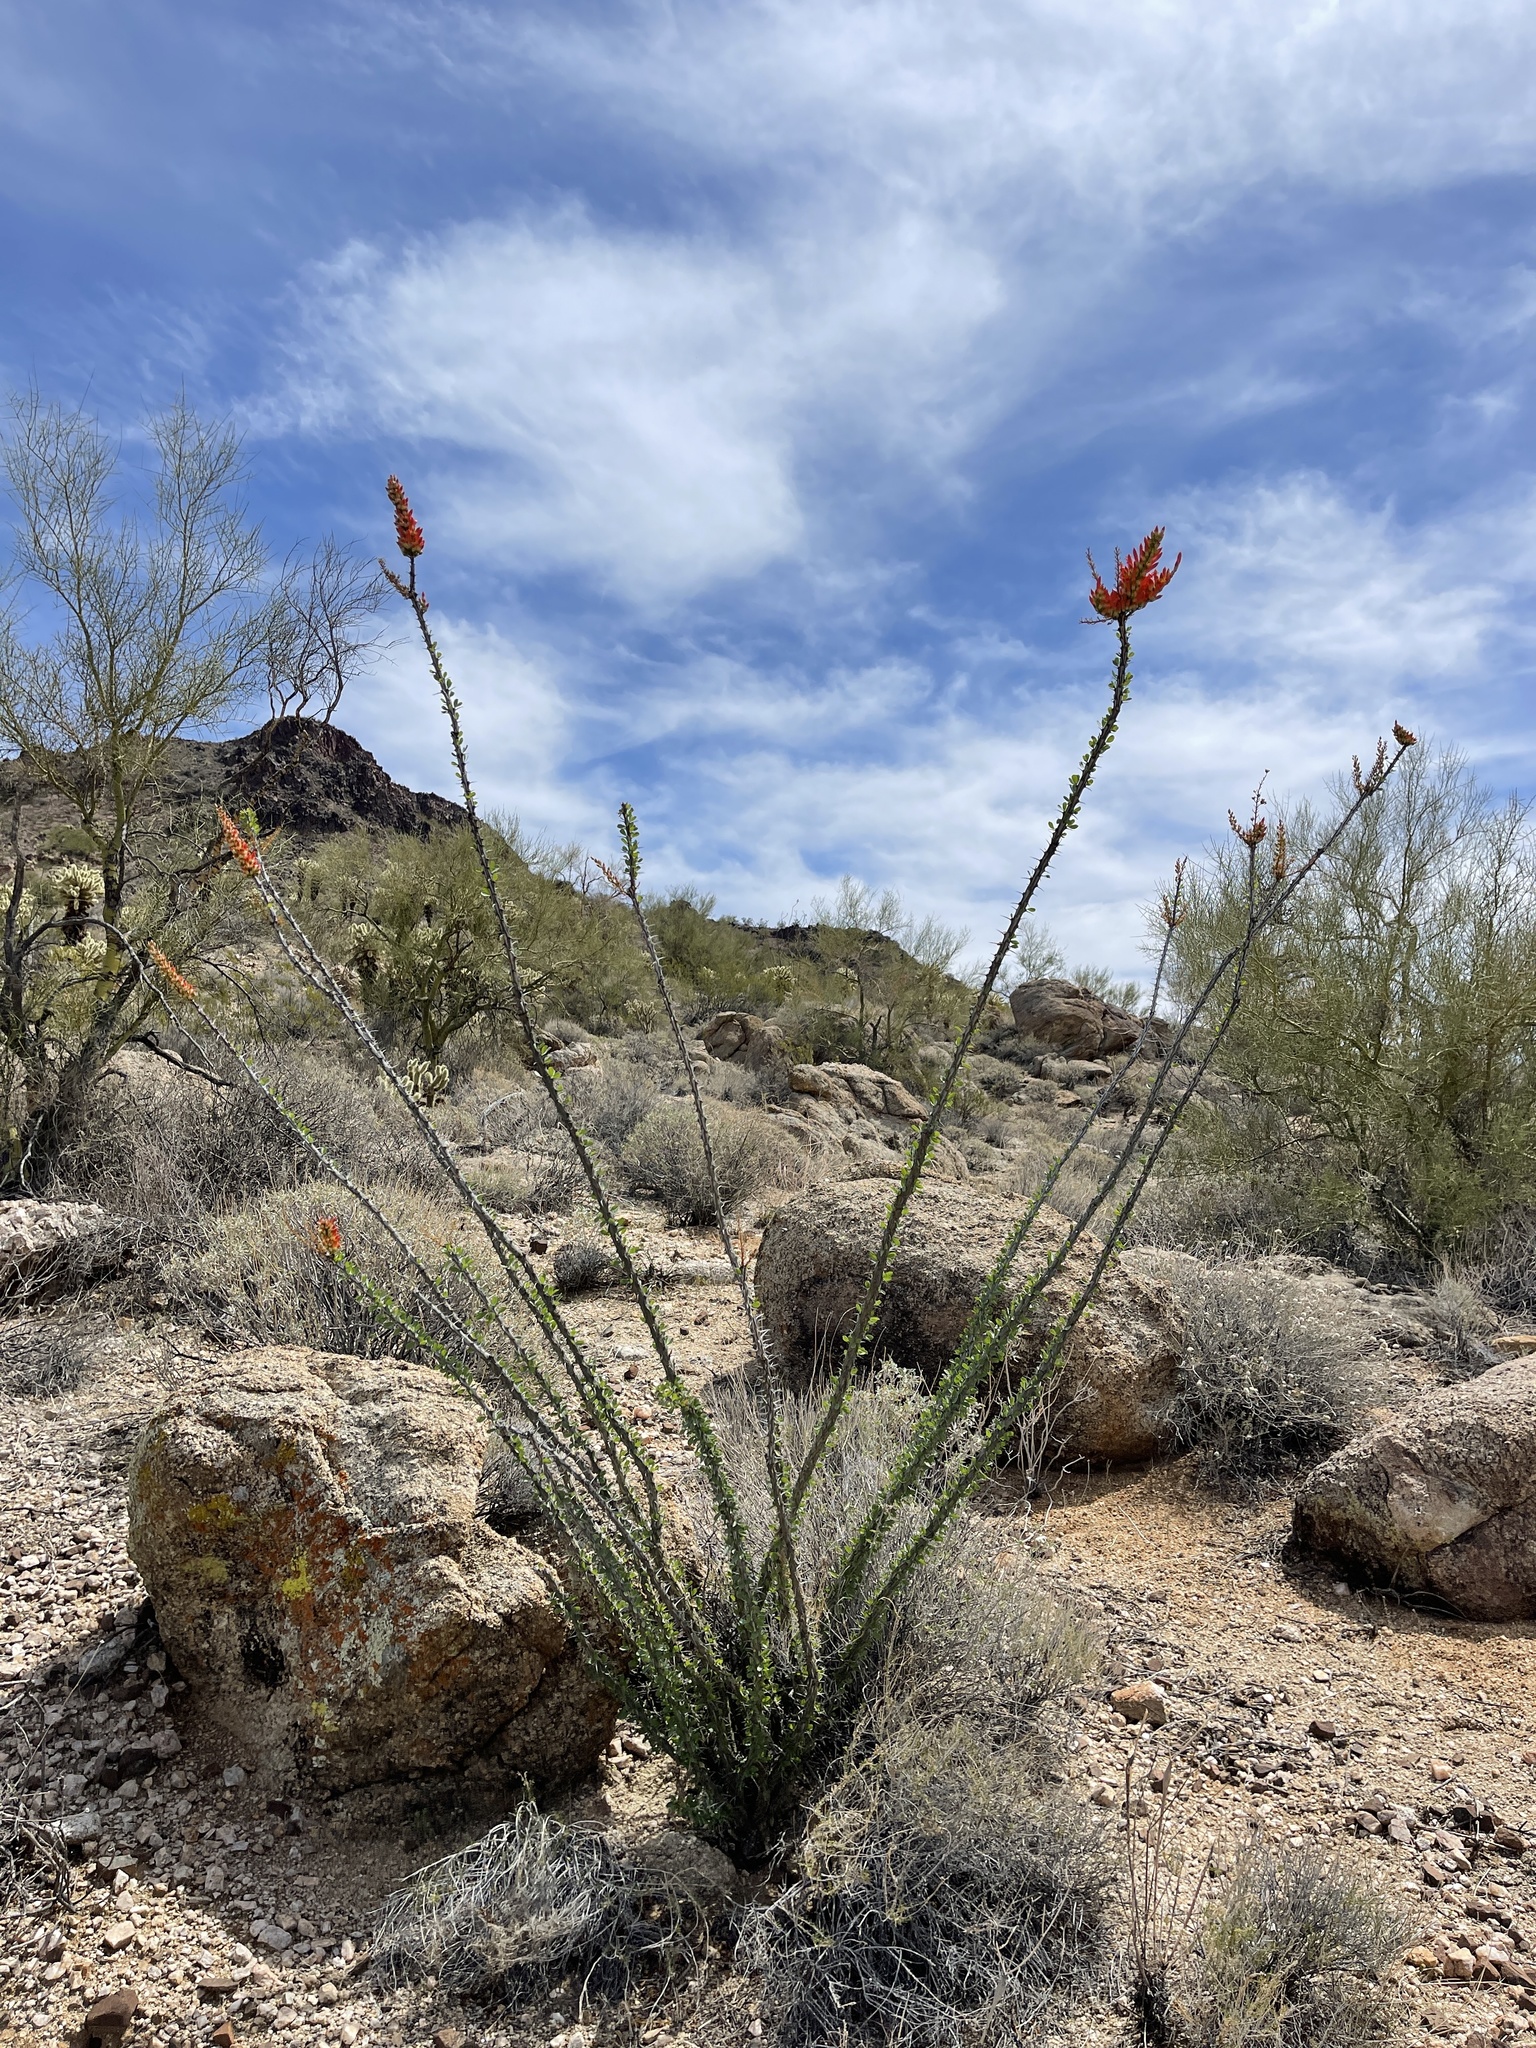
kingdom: Plantae
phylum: Tracheophyta
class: Magnoliopsida
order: Ericales
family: Fouquieriaceae
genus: Fouquieria
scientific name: Fouquieria splendens
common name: Vine-cactus
